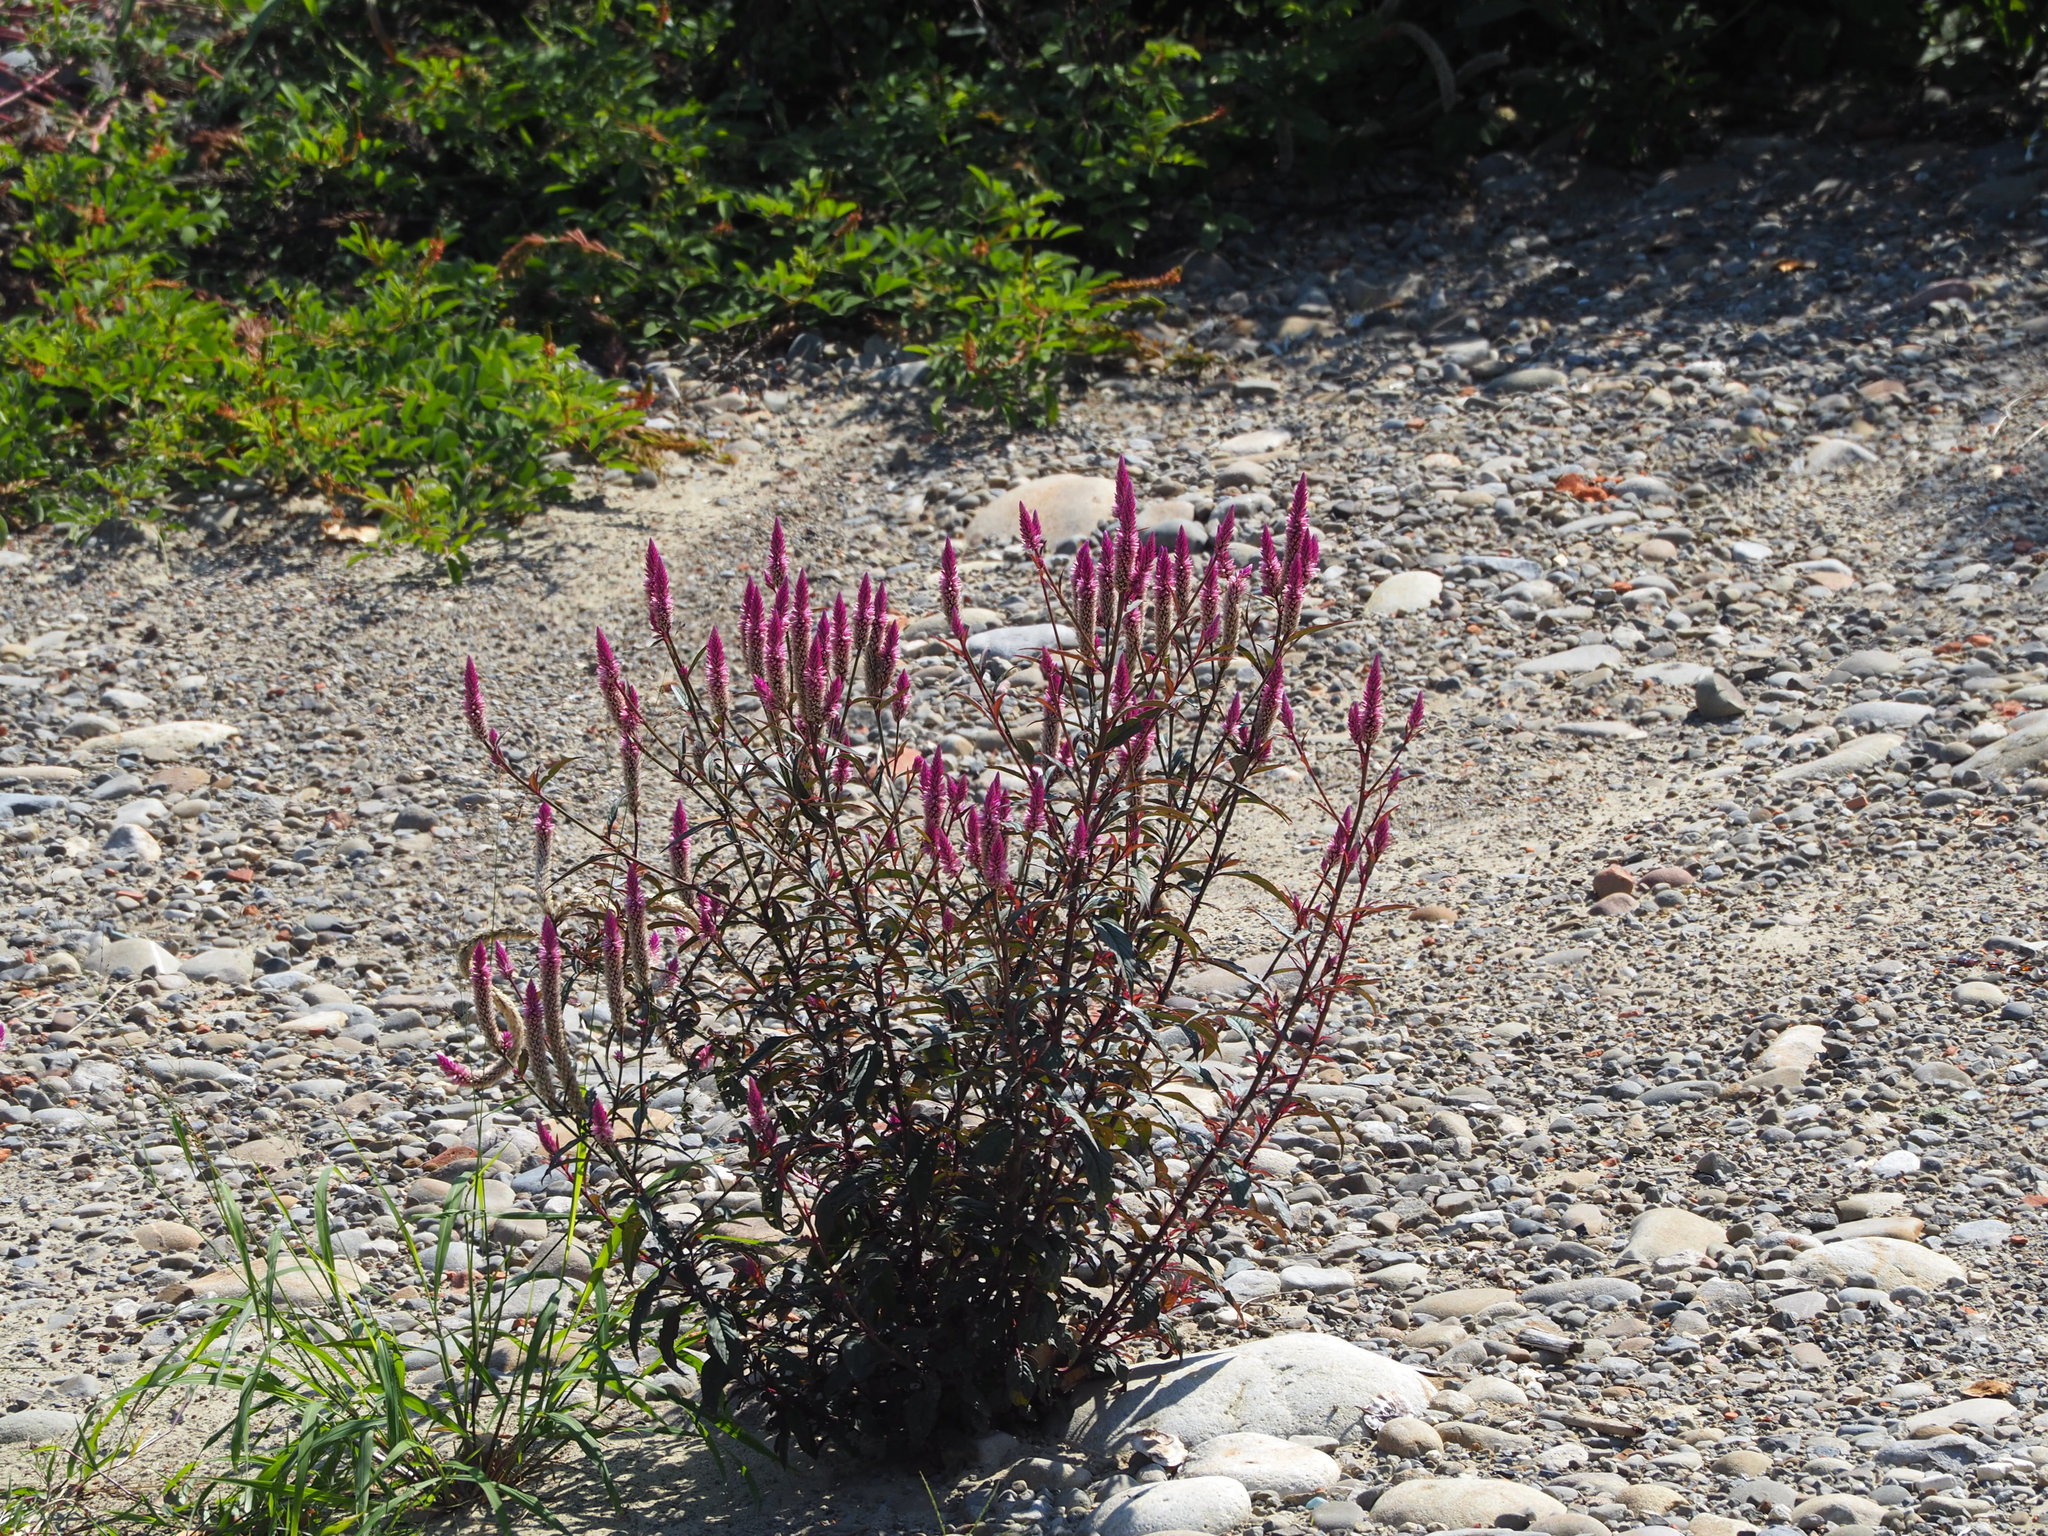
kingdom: Plantae
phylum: Tracheophyta
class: Magnoliopsida
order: Caryophyllales
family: Amaranthaceae
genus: Celosia
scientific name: Celosia argentea
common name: Feather cockscomb
